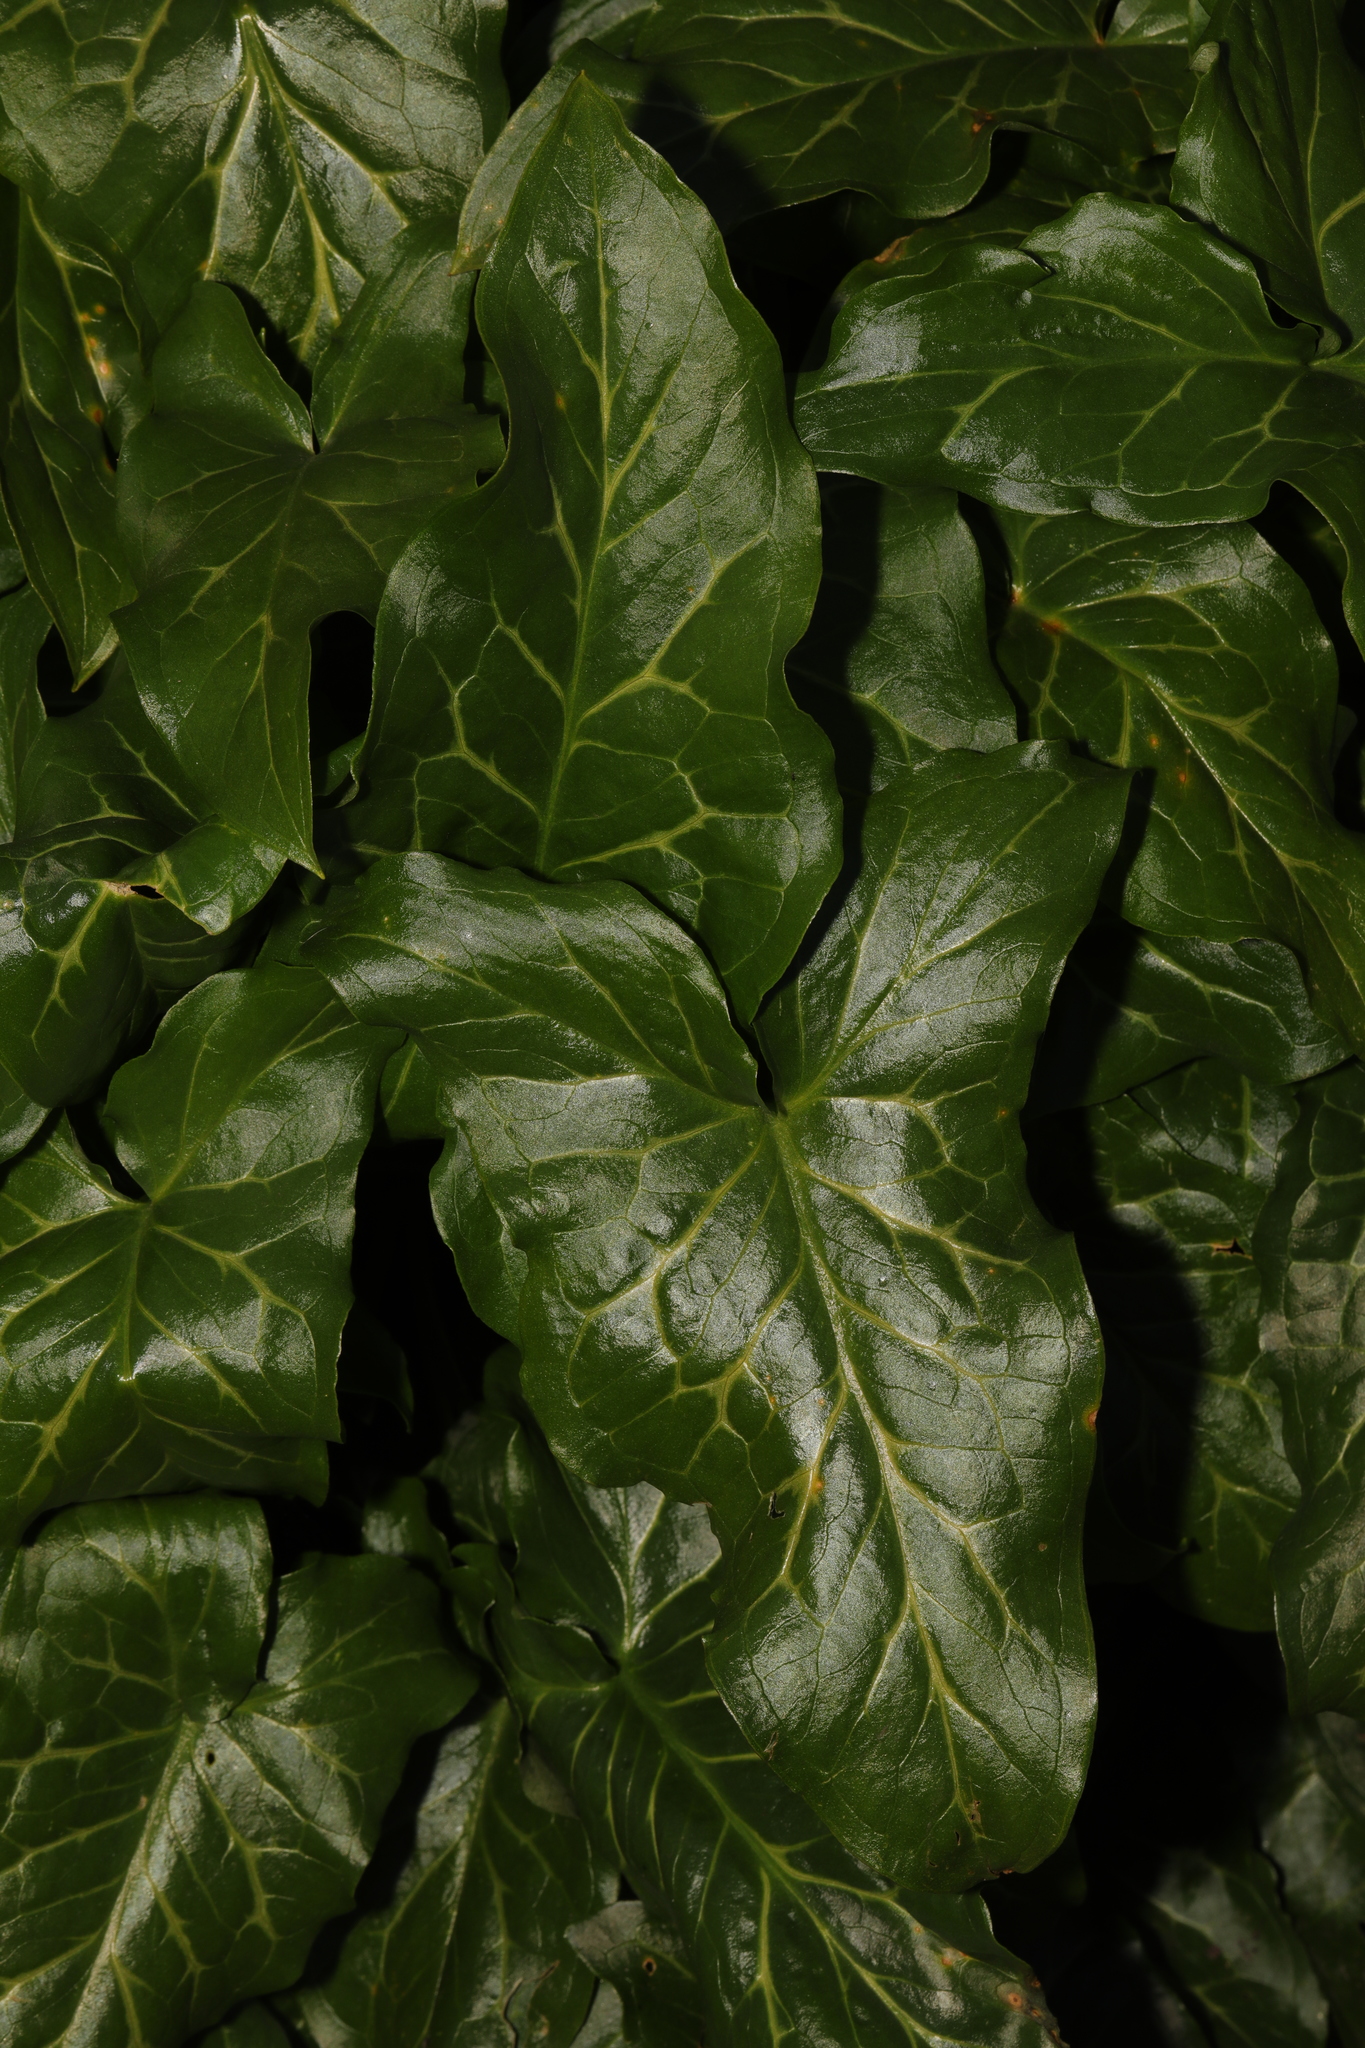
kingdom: Plantae
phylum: Tracheophyta
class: Liliopsida
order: Alismatales
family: Araceae
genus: Arum
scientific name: Arum italicum
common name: Italian lords-and-ladies
